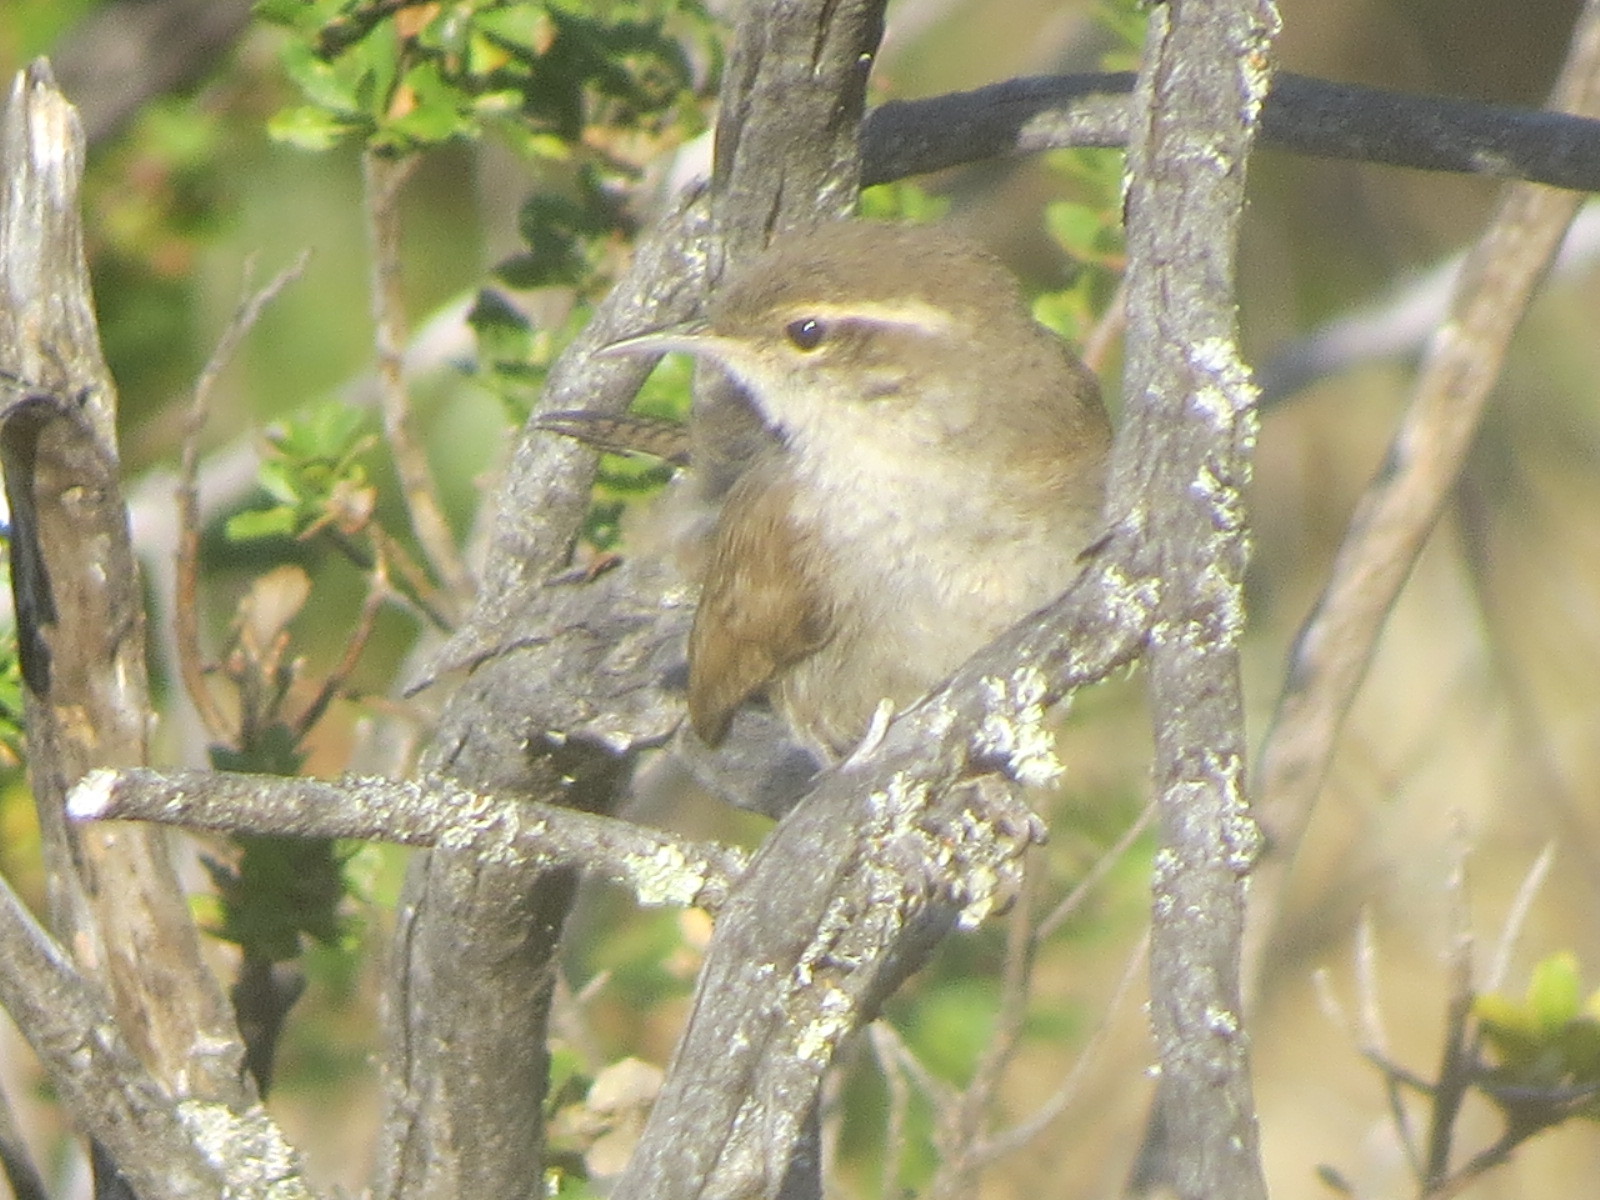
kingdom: Animalia
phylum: Chordata
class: Aves
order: Passeriformes
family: Troglodytidae
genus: Thryomanes
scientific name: Thryomanes bewickii
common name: Bewick's wren
